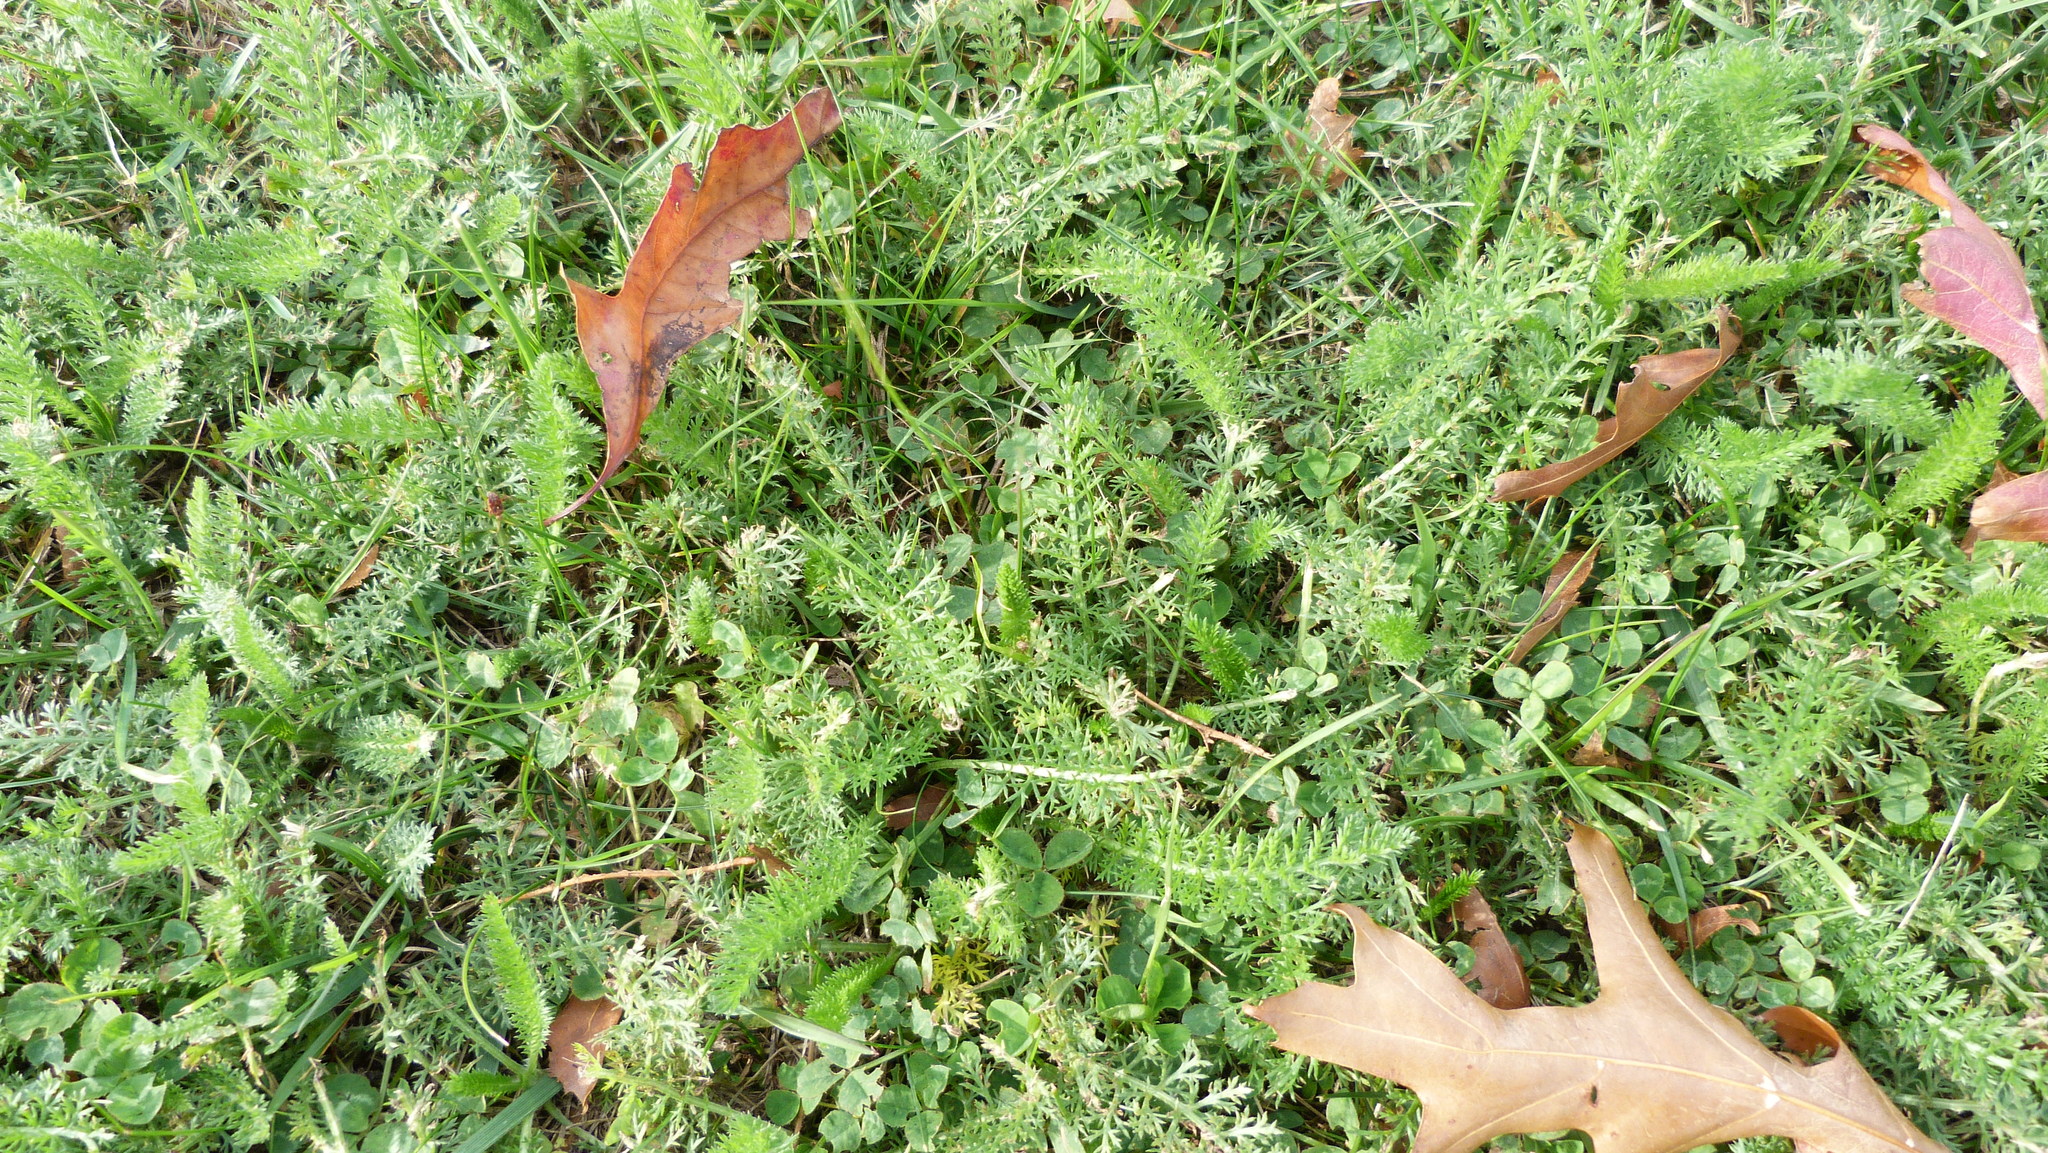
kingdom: Plantae
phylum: Tracheophyta
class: Magnoliopsida
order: Asterales
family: Asteraceae
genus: Achillea
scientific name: Achillea millefolium
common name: Yarrow
